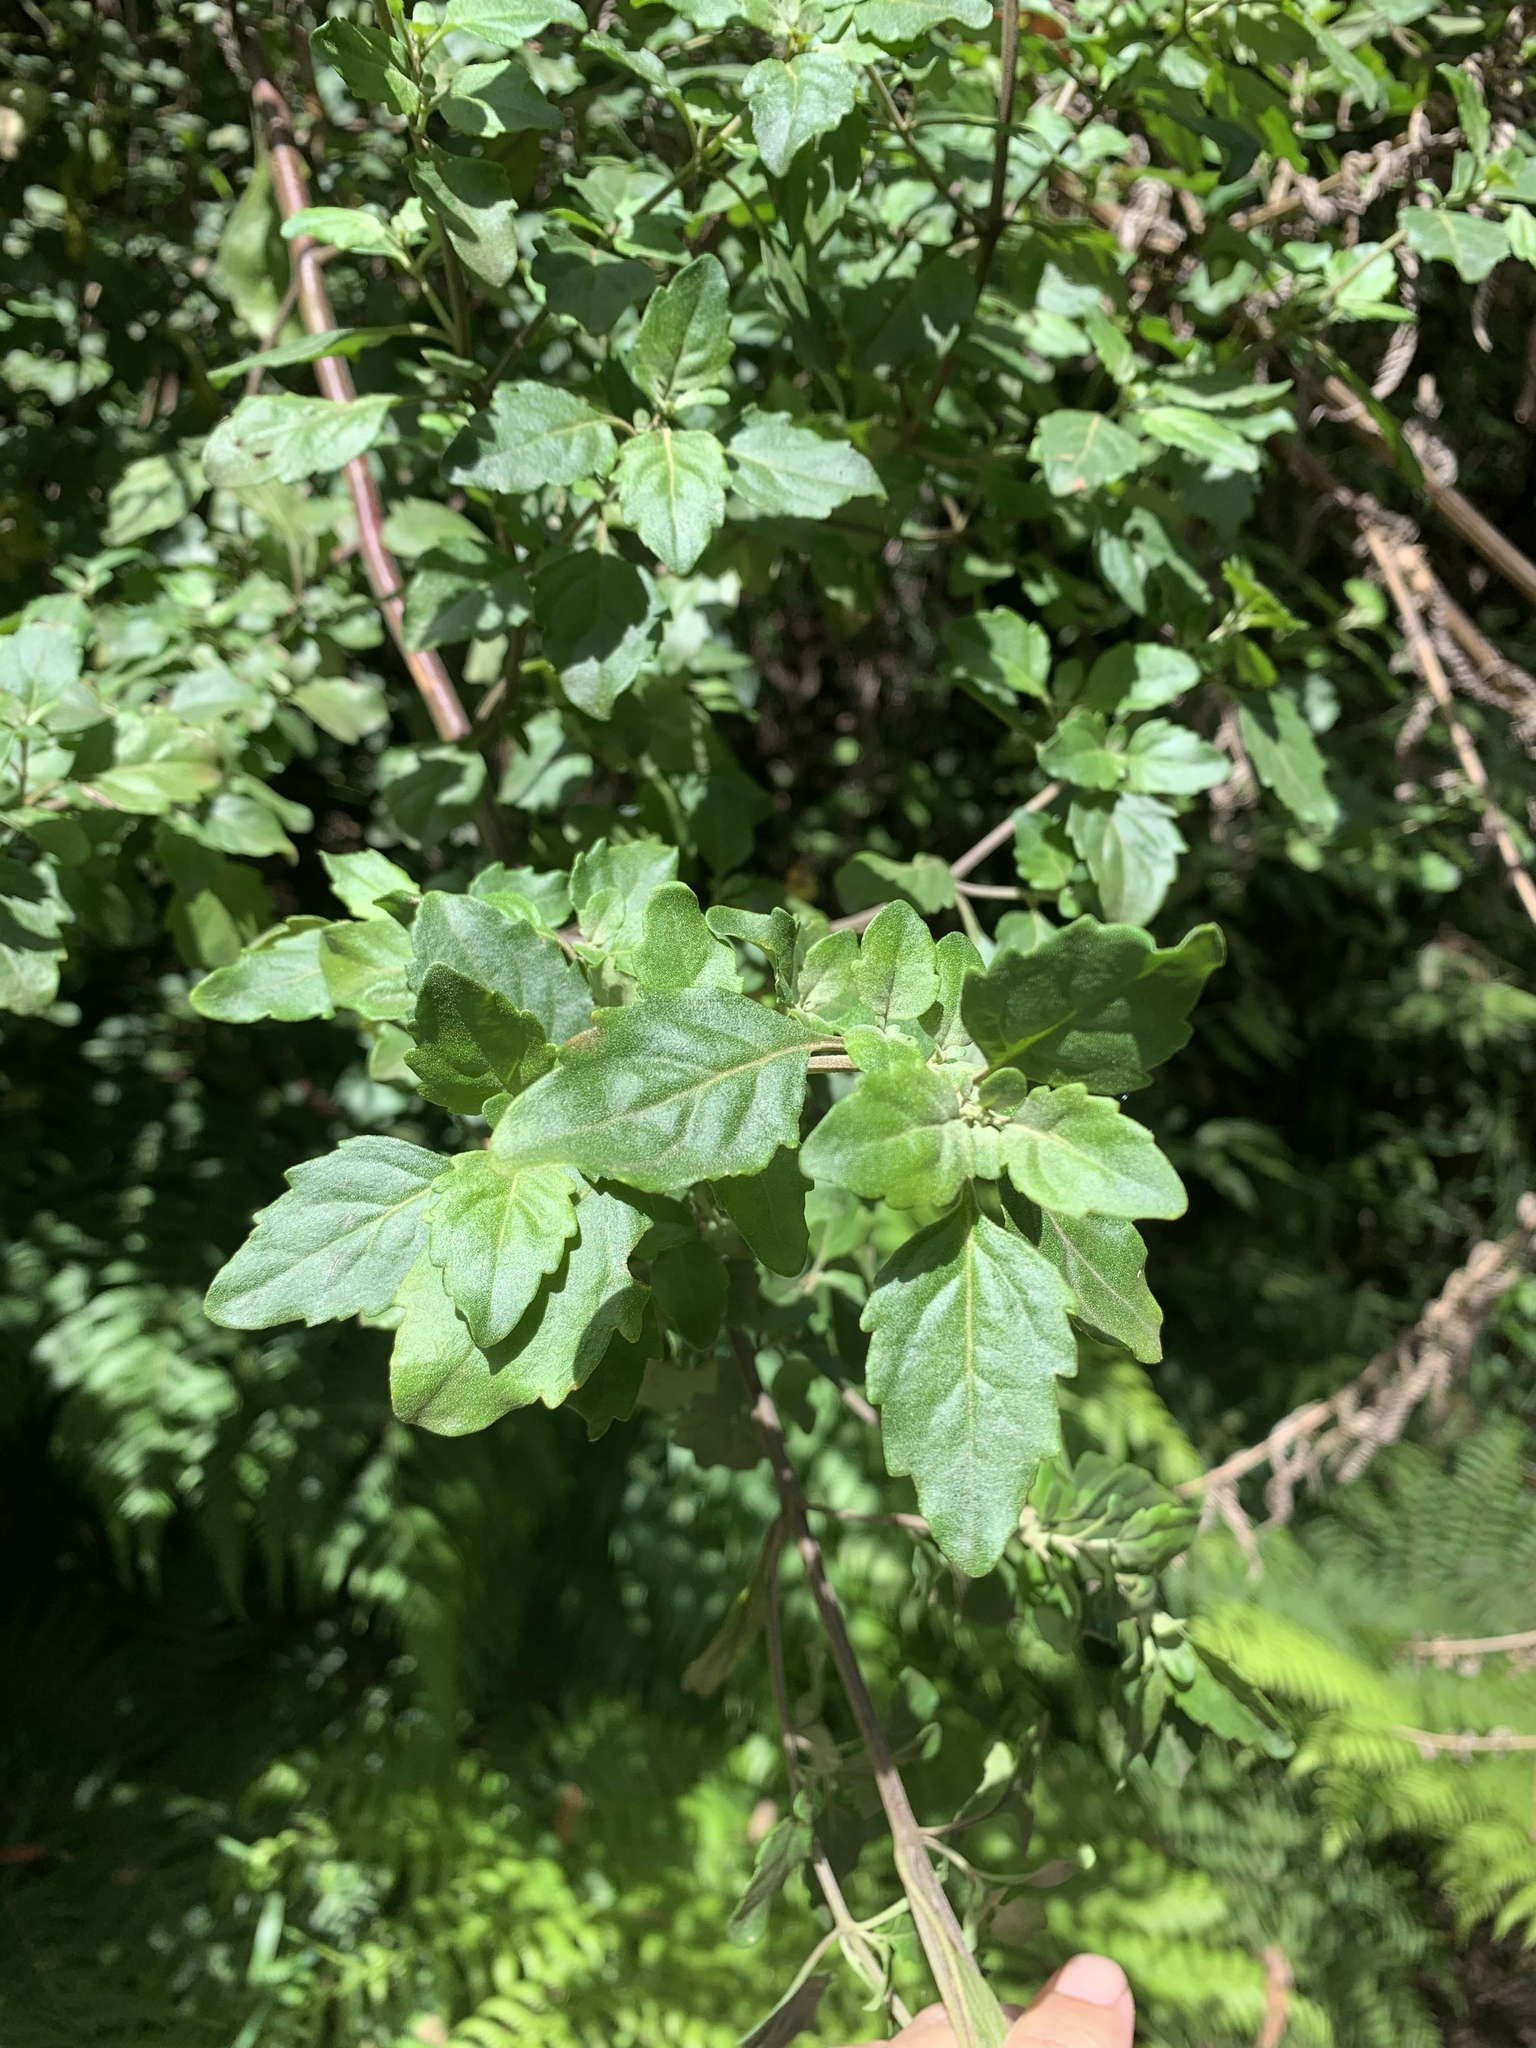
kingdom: Plantae
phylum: Tracheophyta
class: Magnoliopsida
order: Lamiales
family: Lamiaceae
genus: Prostanthera
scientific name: Prostanthera melissifolia
